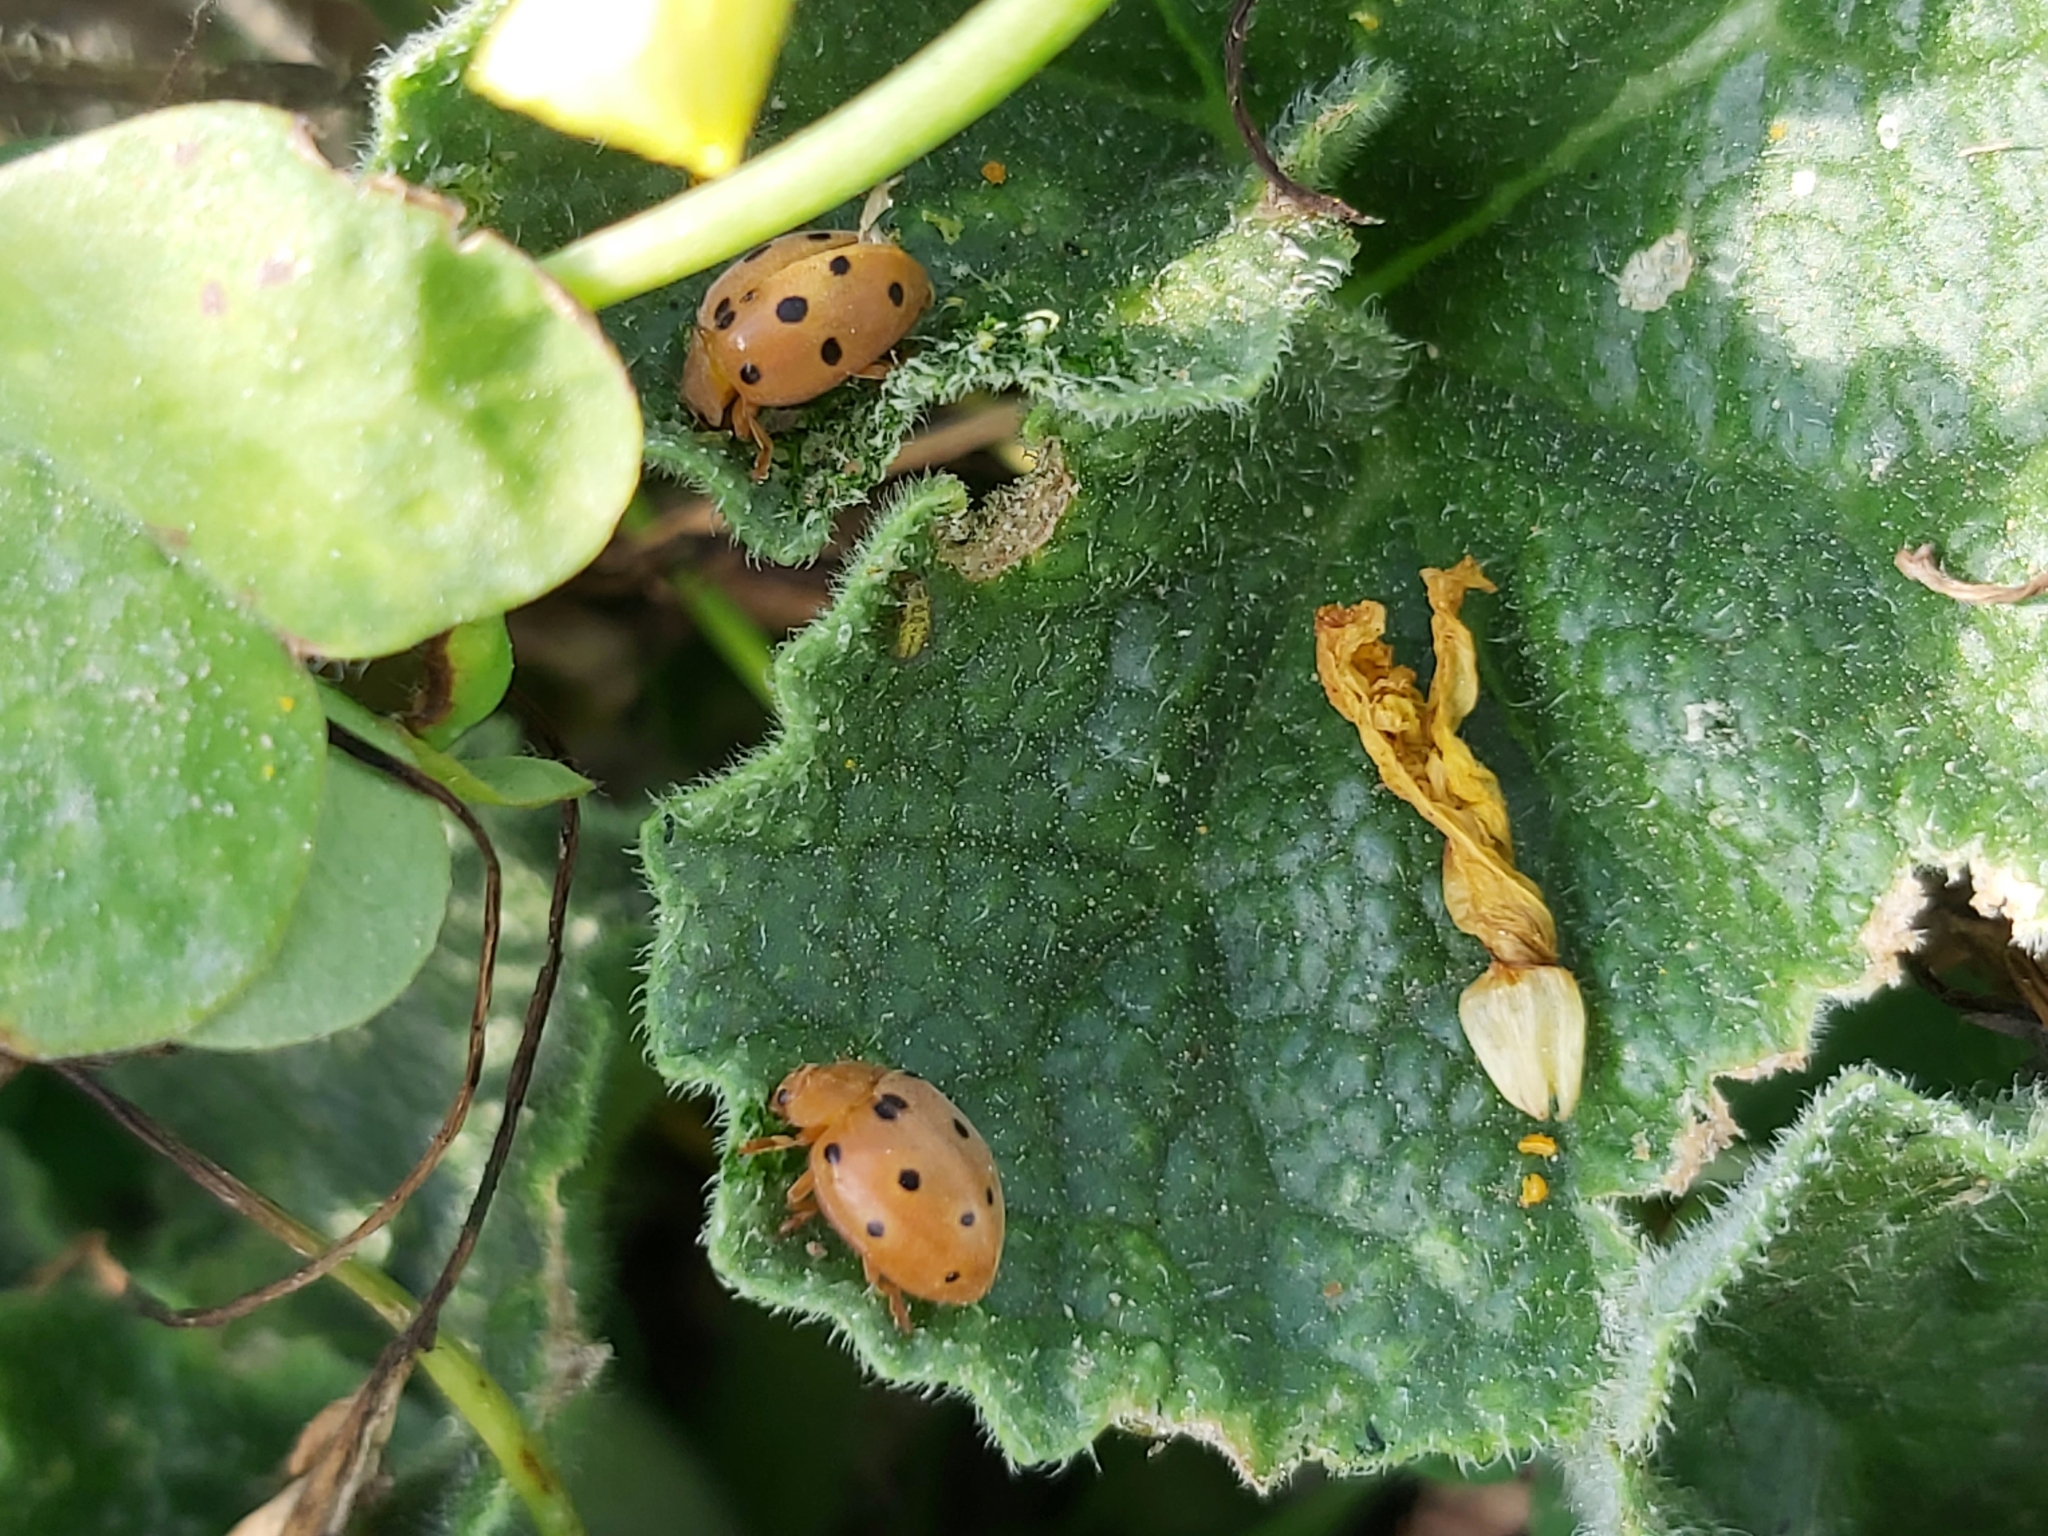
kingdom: Animalia
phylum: Arthropoda
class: Insecta
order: Coleoptera
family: Coccinellidae
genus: Henosepilachna
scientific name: Henosepilachna argus
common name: Bryony ladybird
